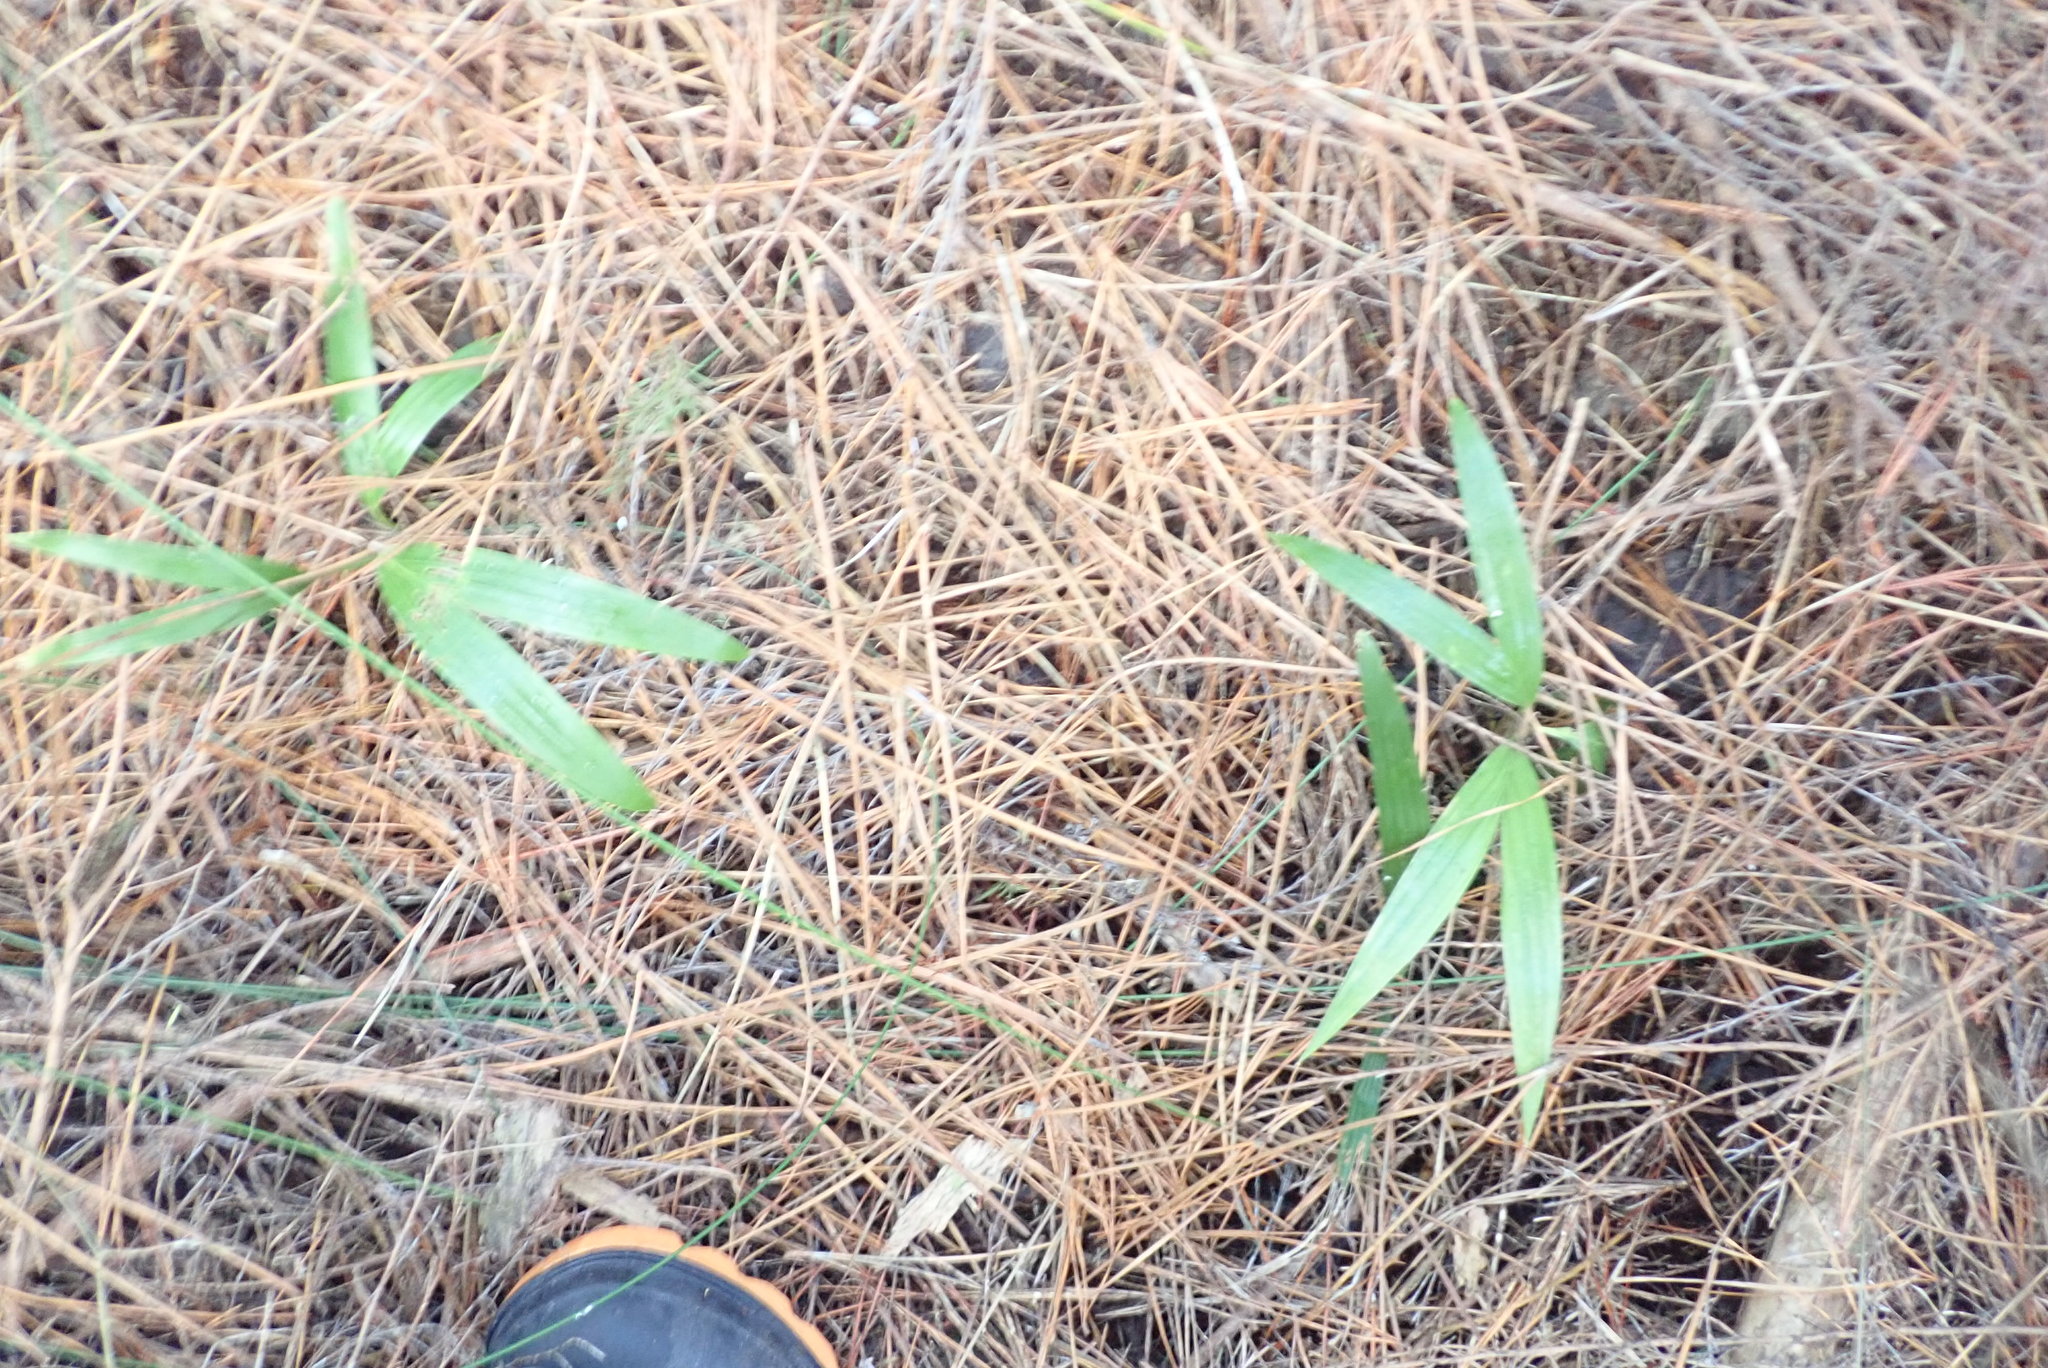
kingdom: Plantae
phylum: Tracheophyta
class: Liliopsida
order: Arecales
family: Arecaceae
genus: Archontophoenix
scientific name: Archontophoenix cunninghamiana
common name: Piccabeen bangalow palm
